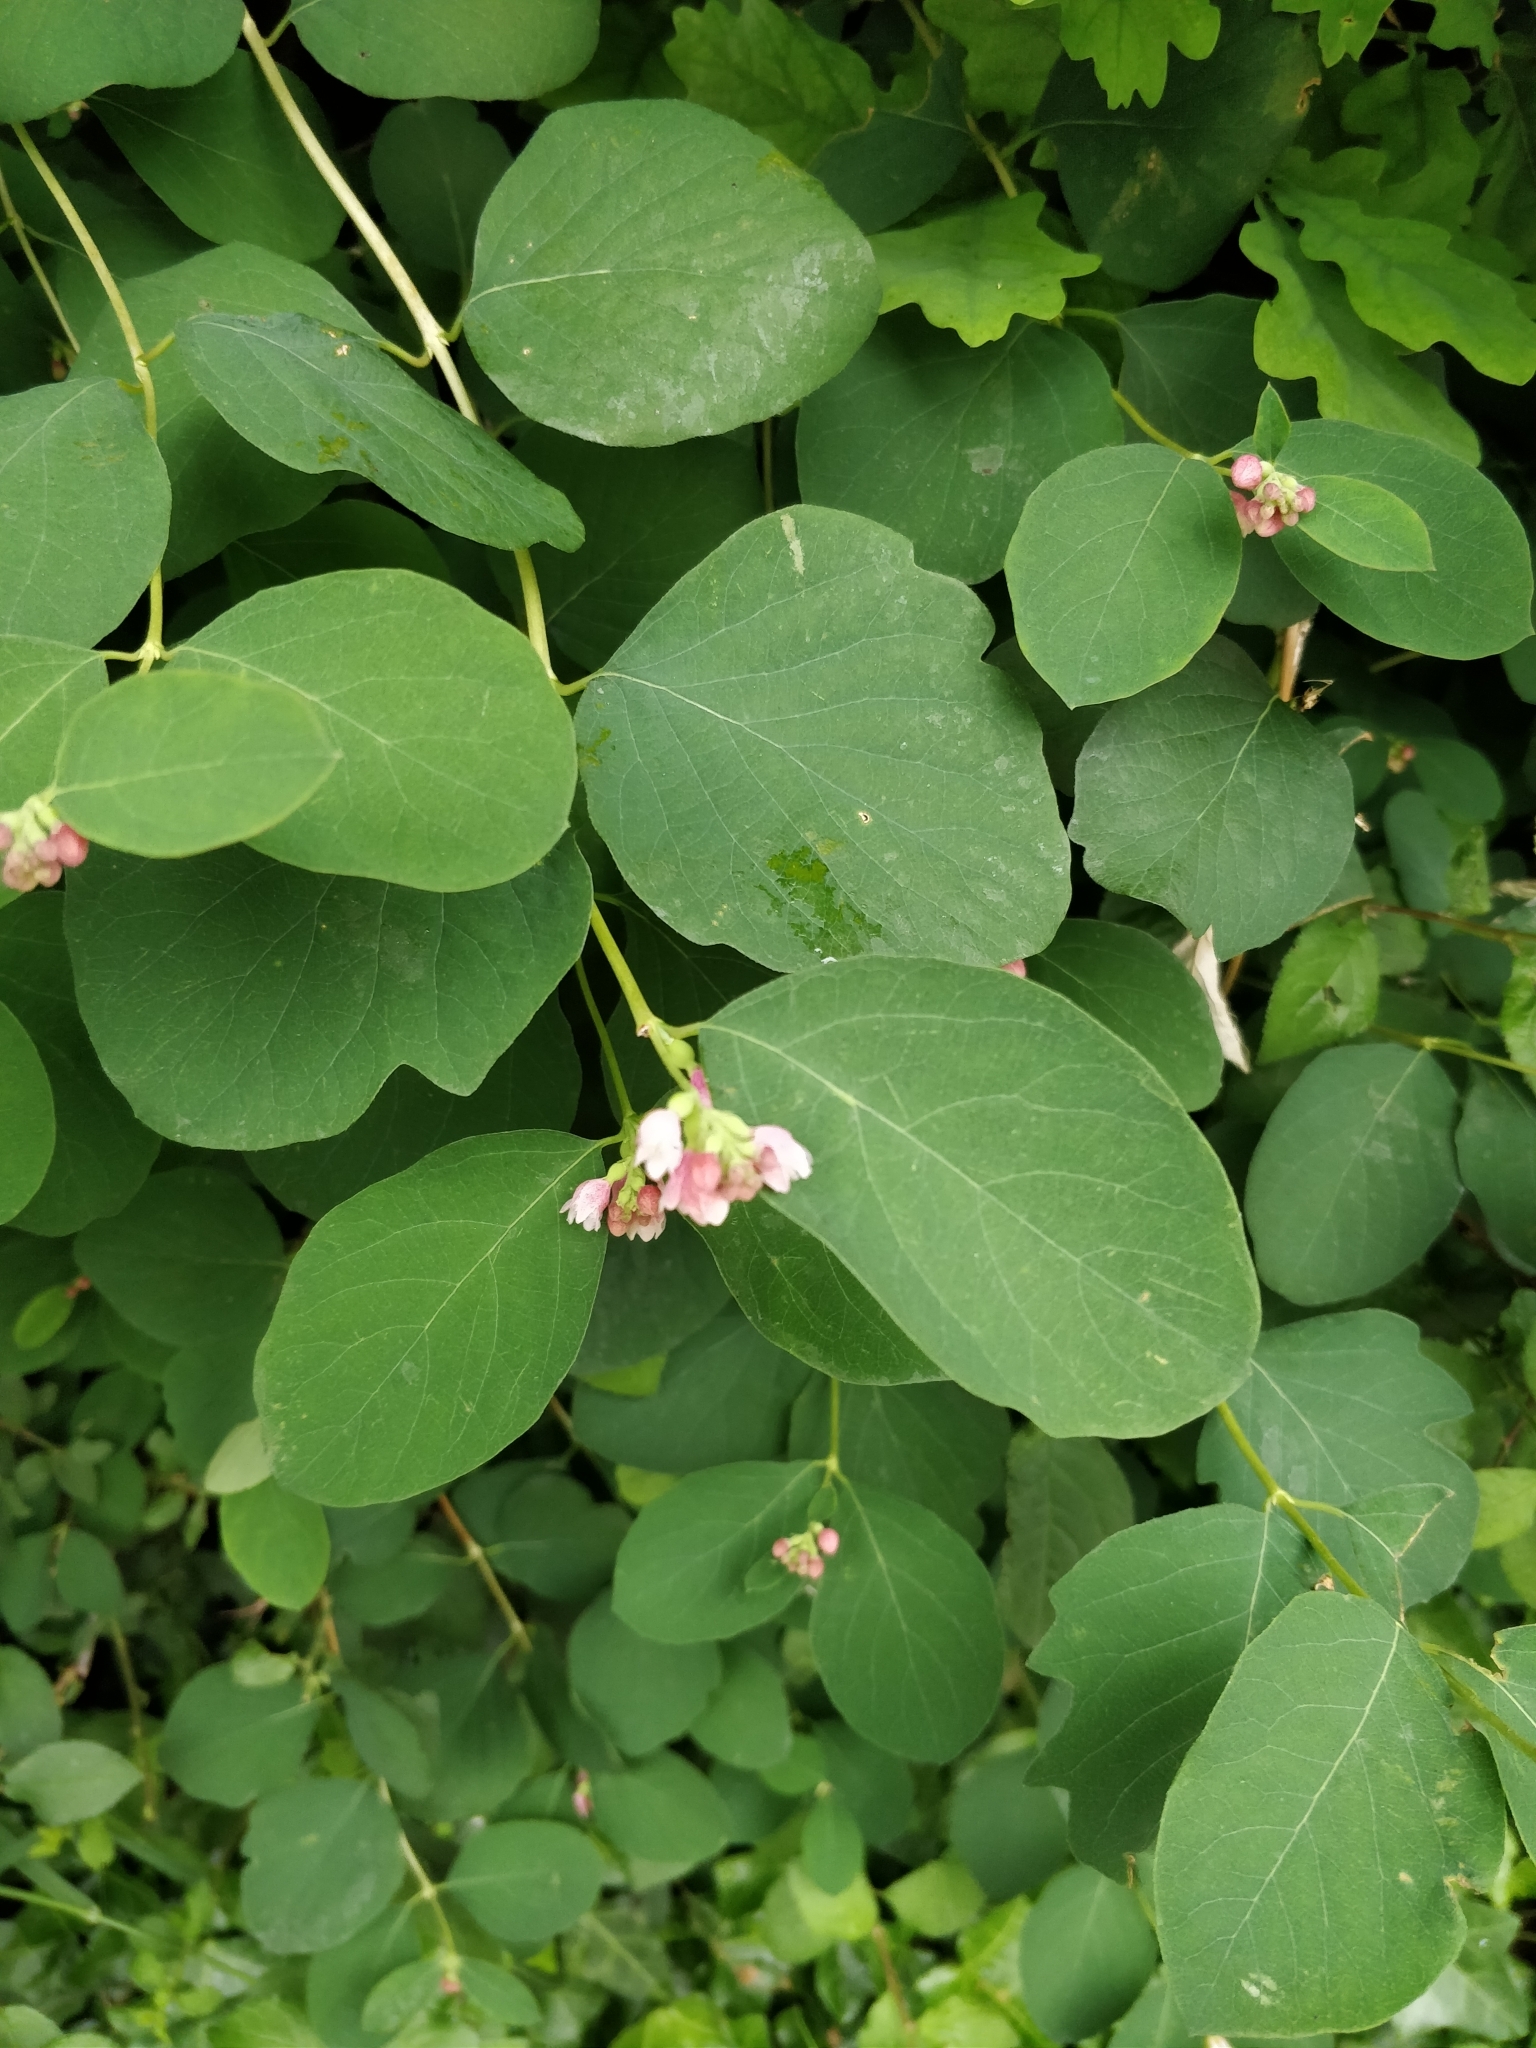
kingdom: Plantae
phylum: Tracheophyta
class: Magnoliopsida
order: Dipsacales
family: Caprifoliaceae
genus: Symphoricarpos
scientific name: Symphoricarpos albus
